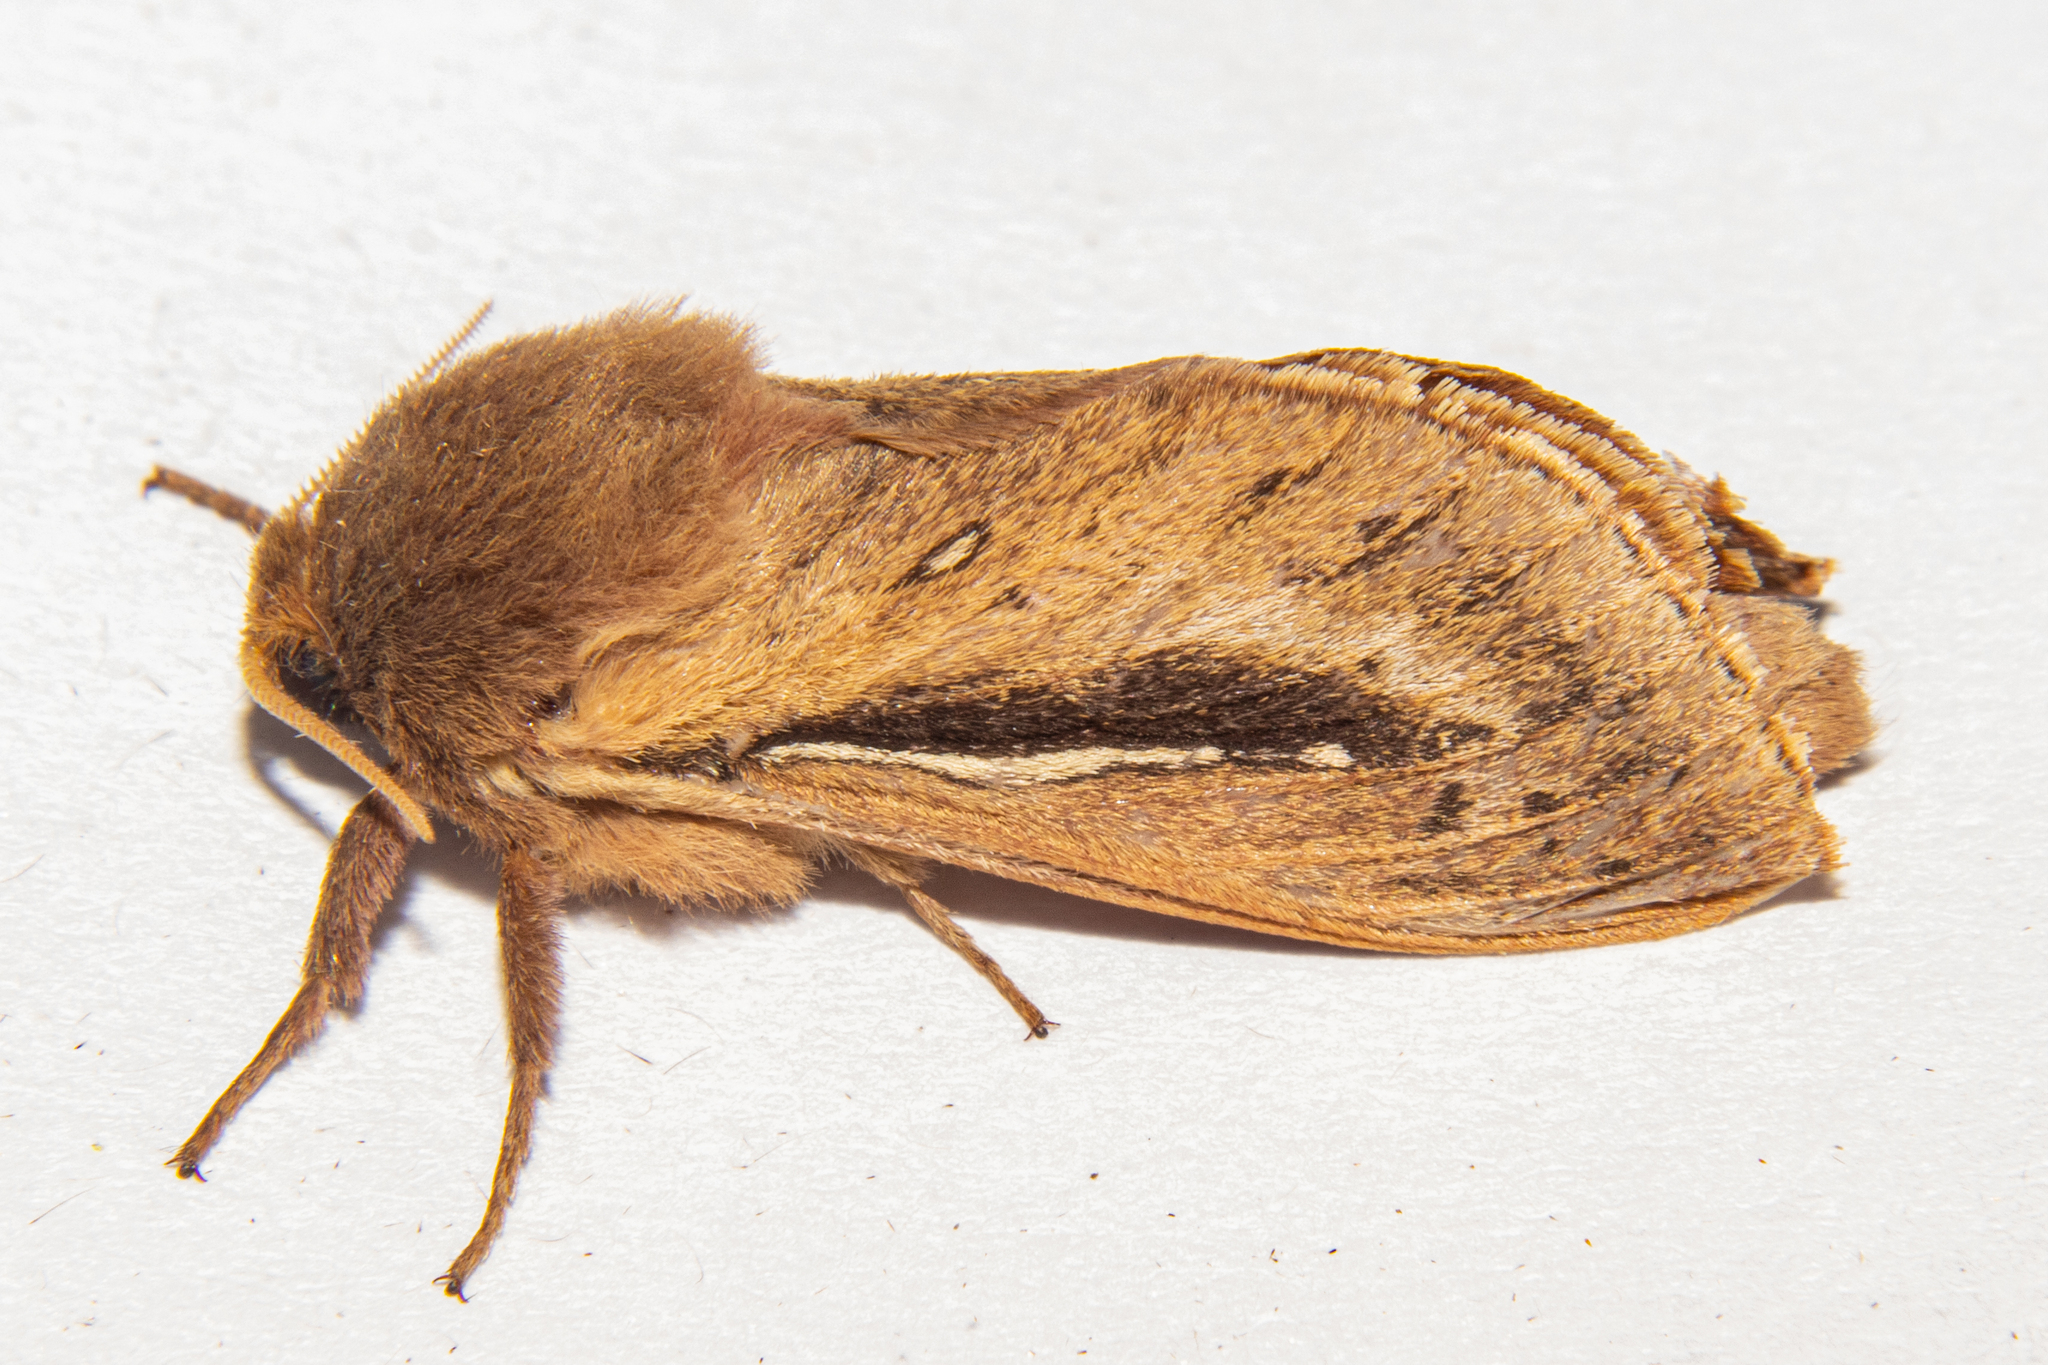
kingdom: Animalia
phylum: Arthropoda
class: Insecta
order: Lepidoptera
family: Hepialidae
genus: Wiseana
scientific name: Wiseana umbraculatus
